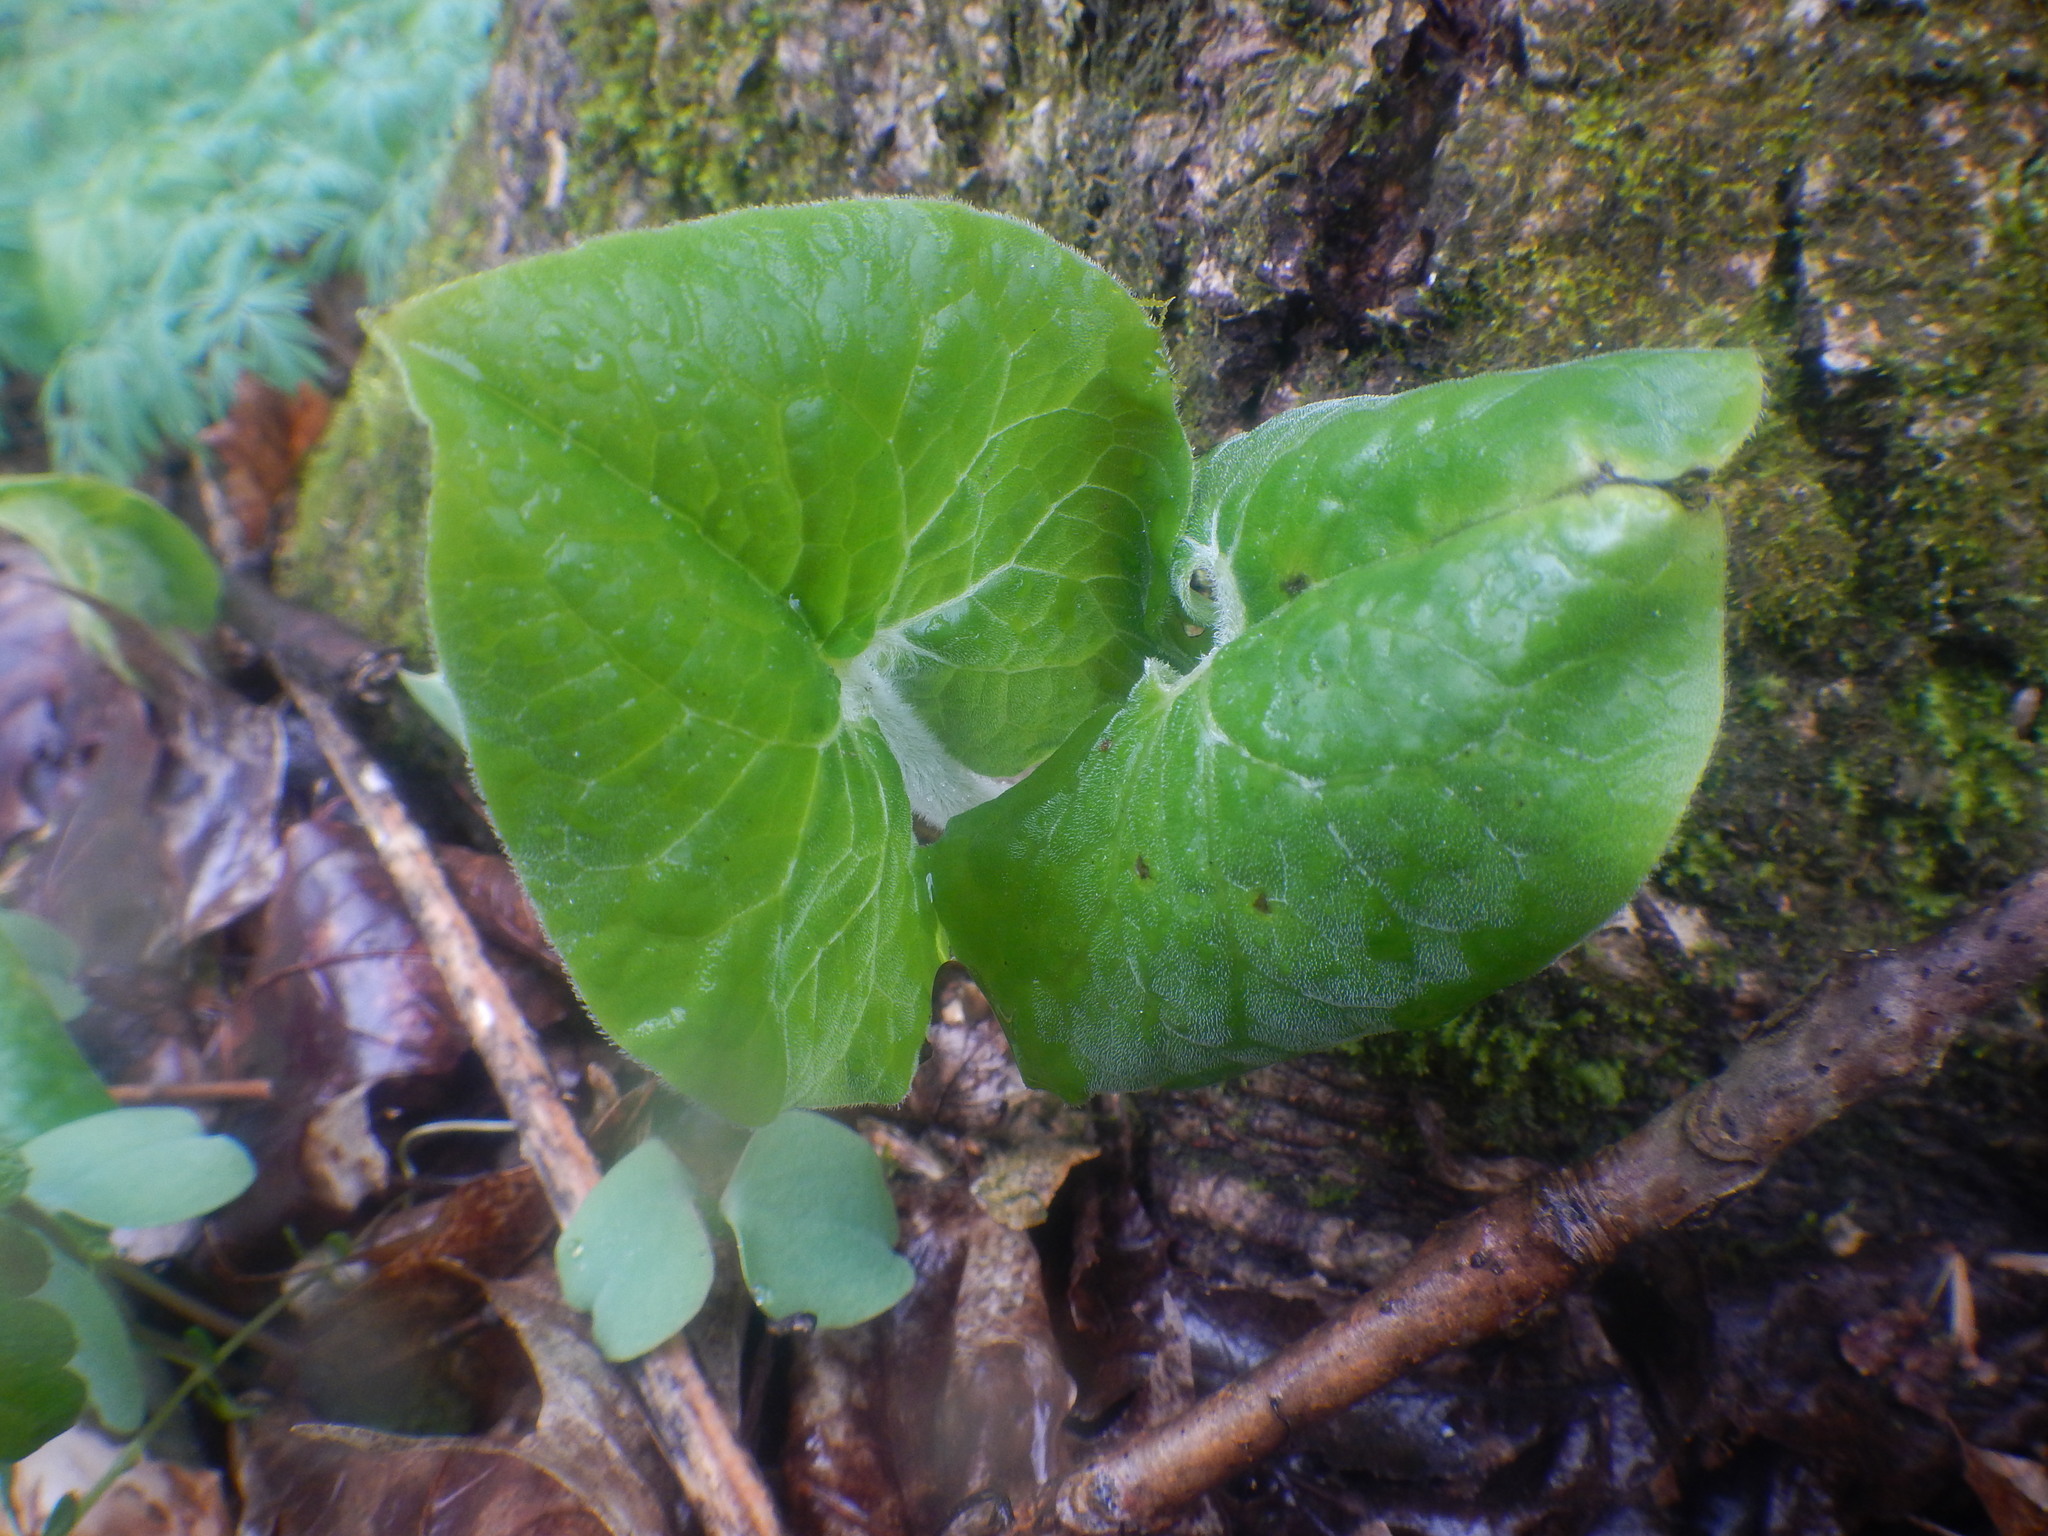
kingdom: Plantae
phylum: Tracheophyta
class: Magnoliopsida
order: Piperales
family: Aristolochiaceae
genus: Asarum
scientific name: Asarum canadense
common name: Wild ginger
